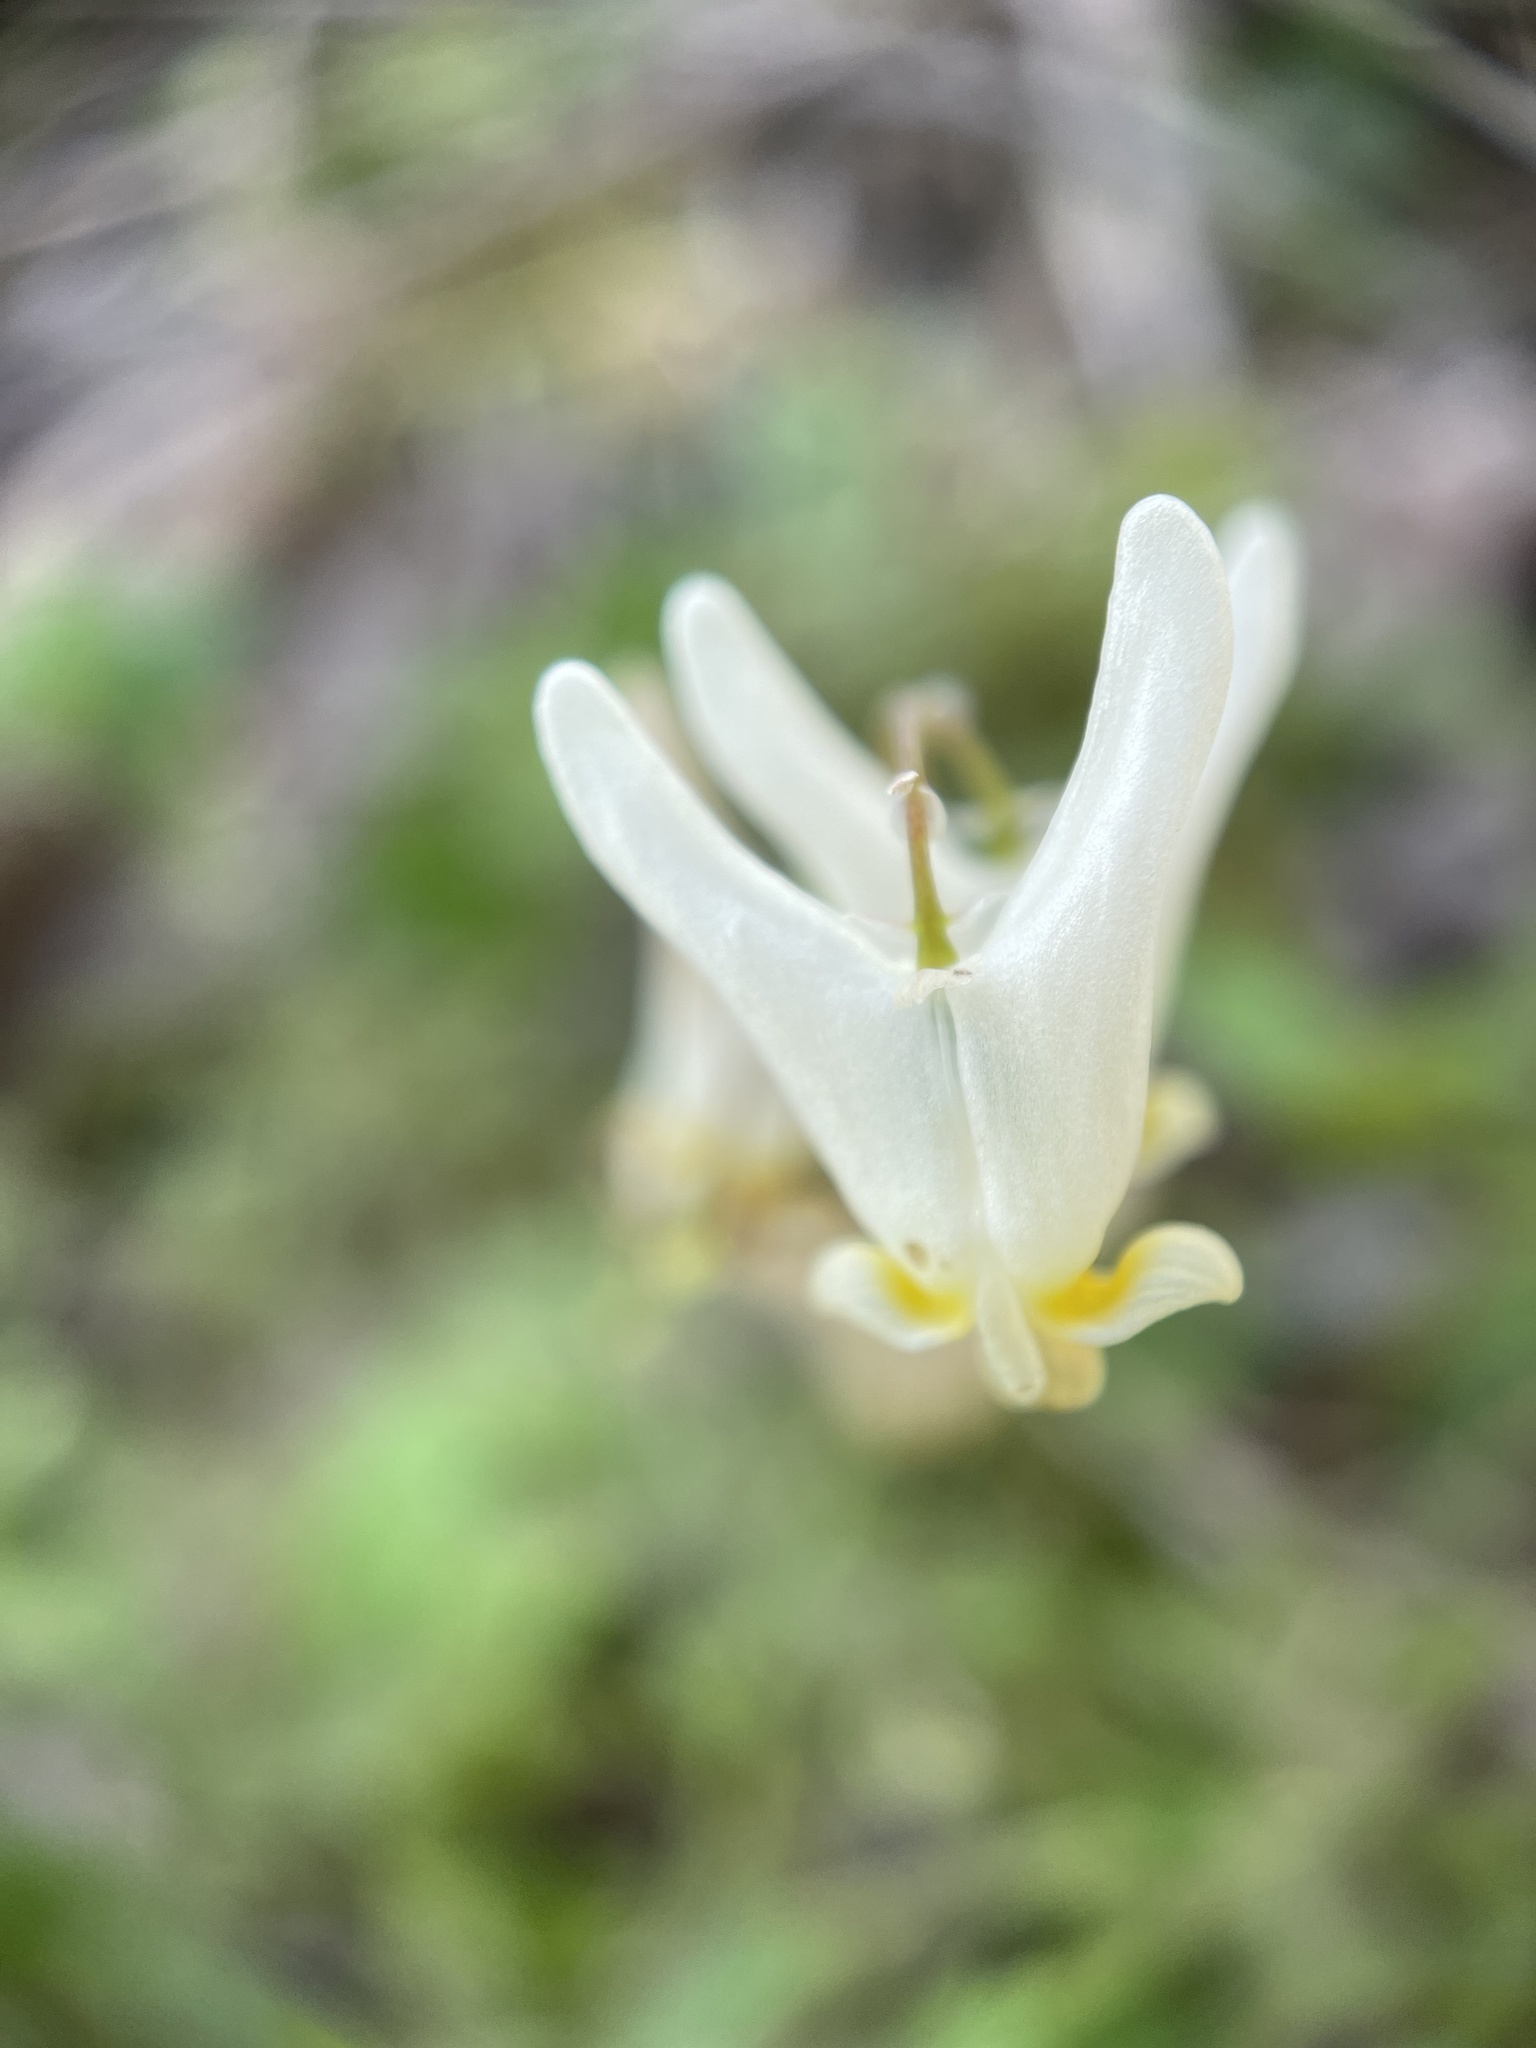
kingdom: Plantae
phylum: Tracheophyta
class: Magnoliopsida
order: Ranunculales
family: Papaveraceae
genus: Dicentra
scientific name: Dicentra cucullaria
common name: Dutchman's breeches
